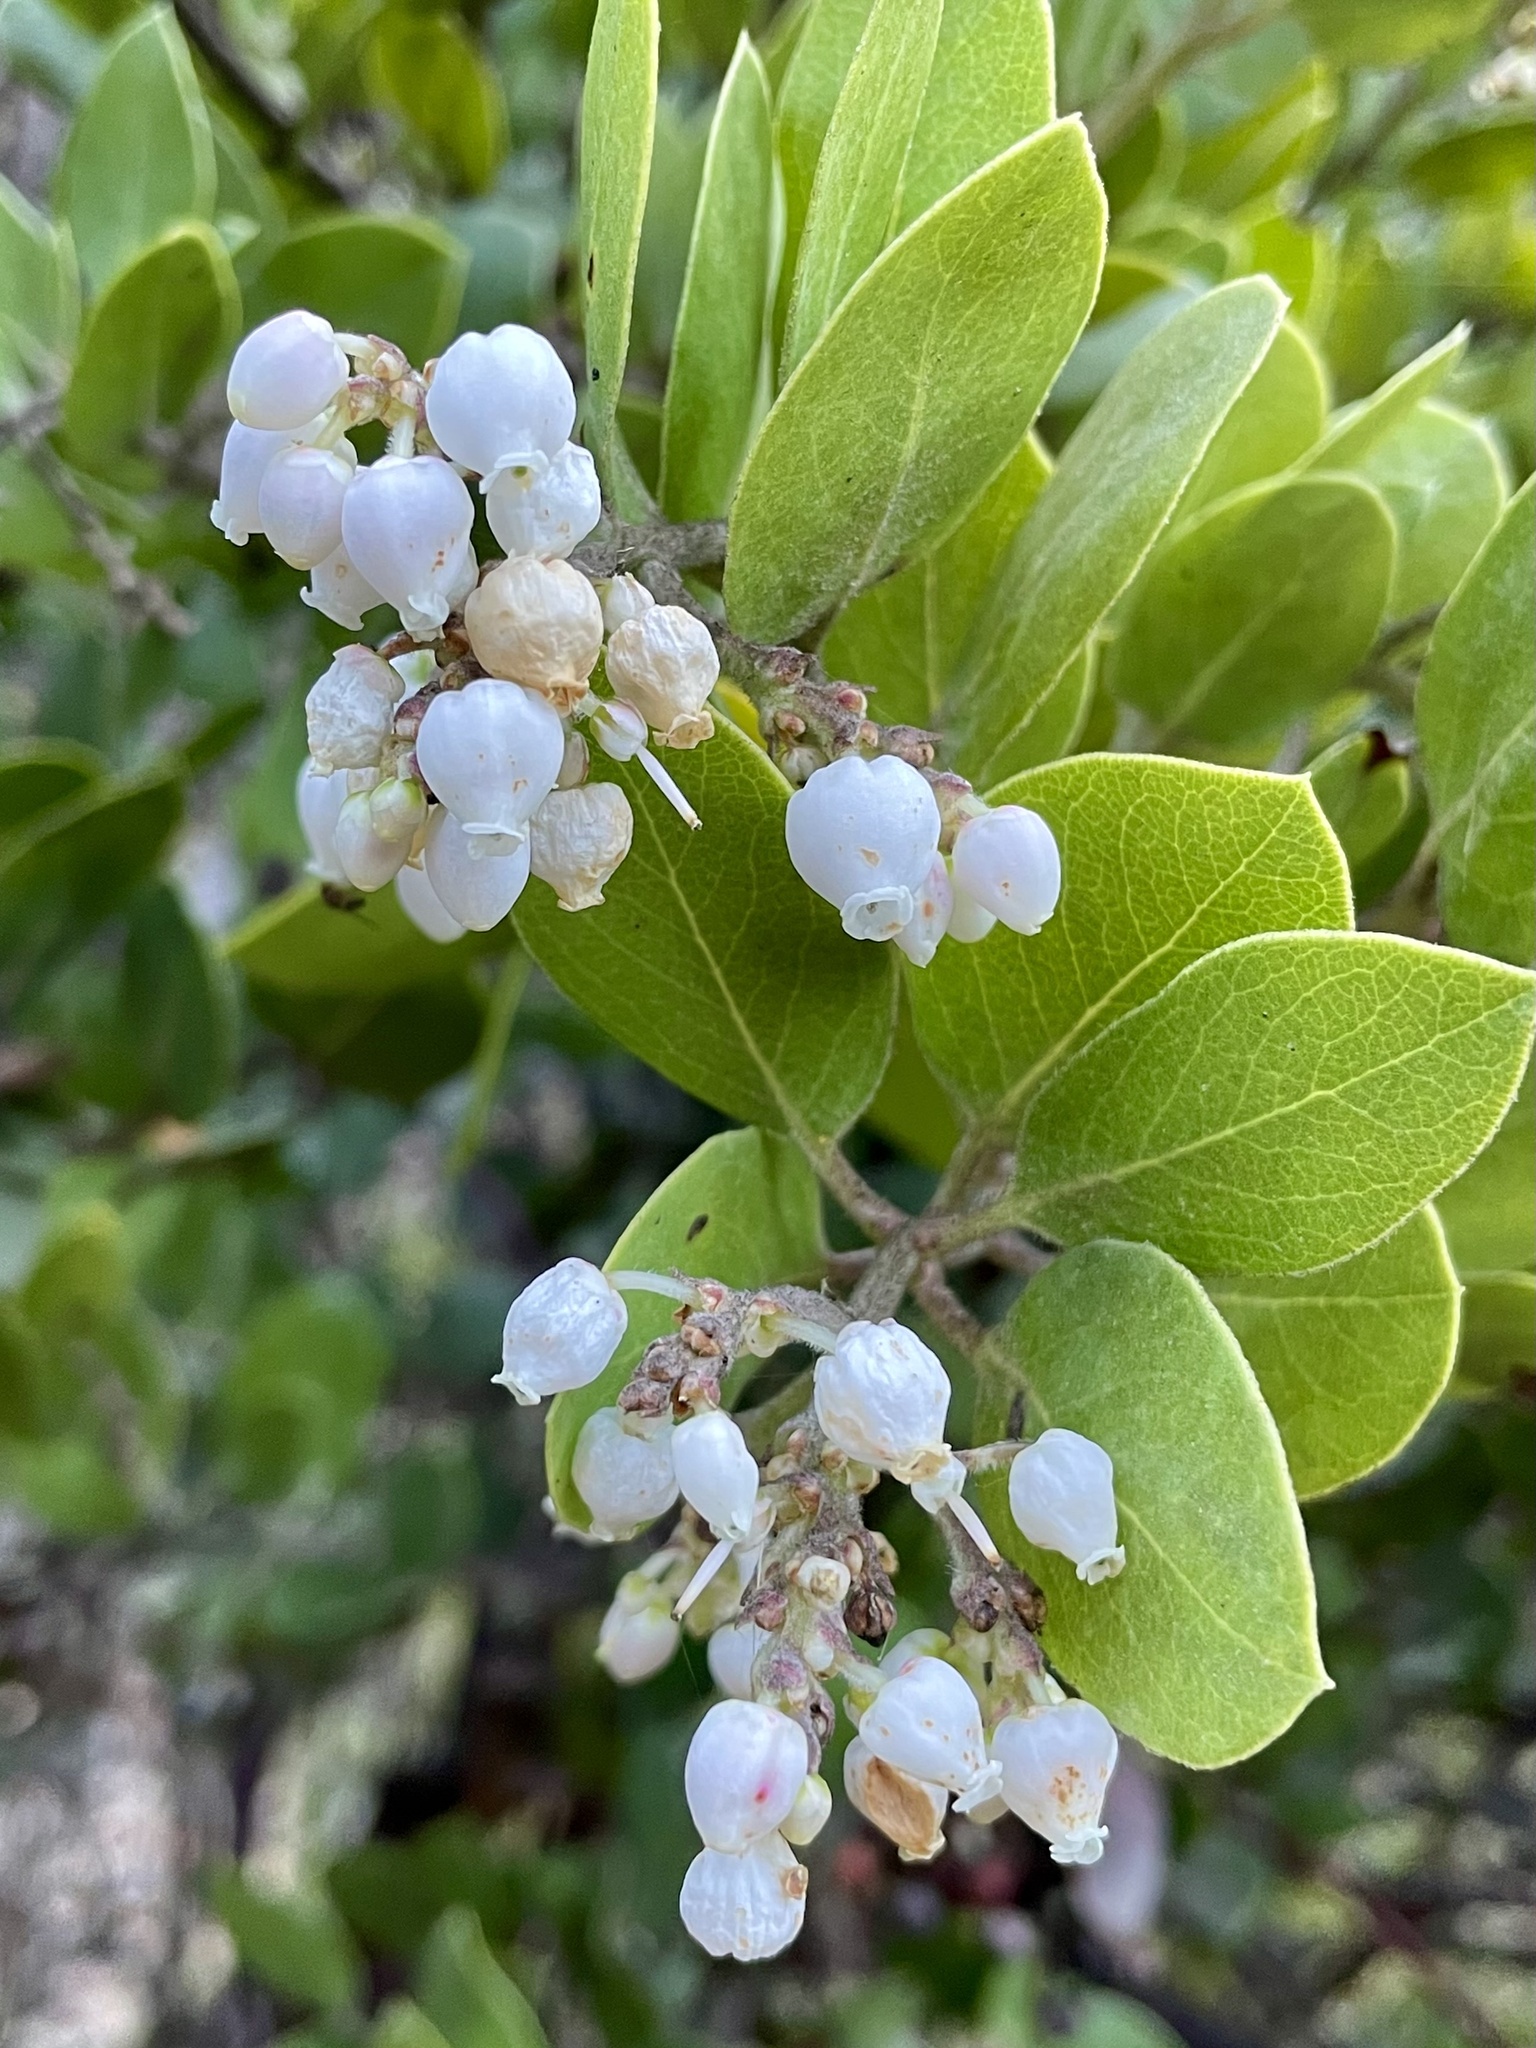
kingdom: Plantae
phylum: Tracheophyta
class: Magnoliopsida
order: Ericales
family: Ericaceae
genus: Arctostaphylos
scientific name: Arctostaphylos manzanita
